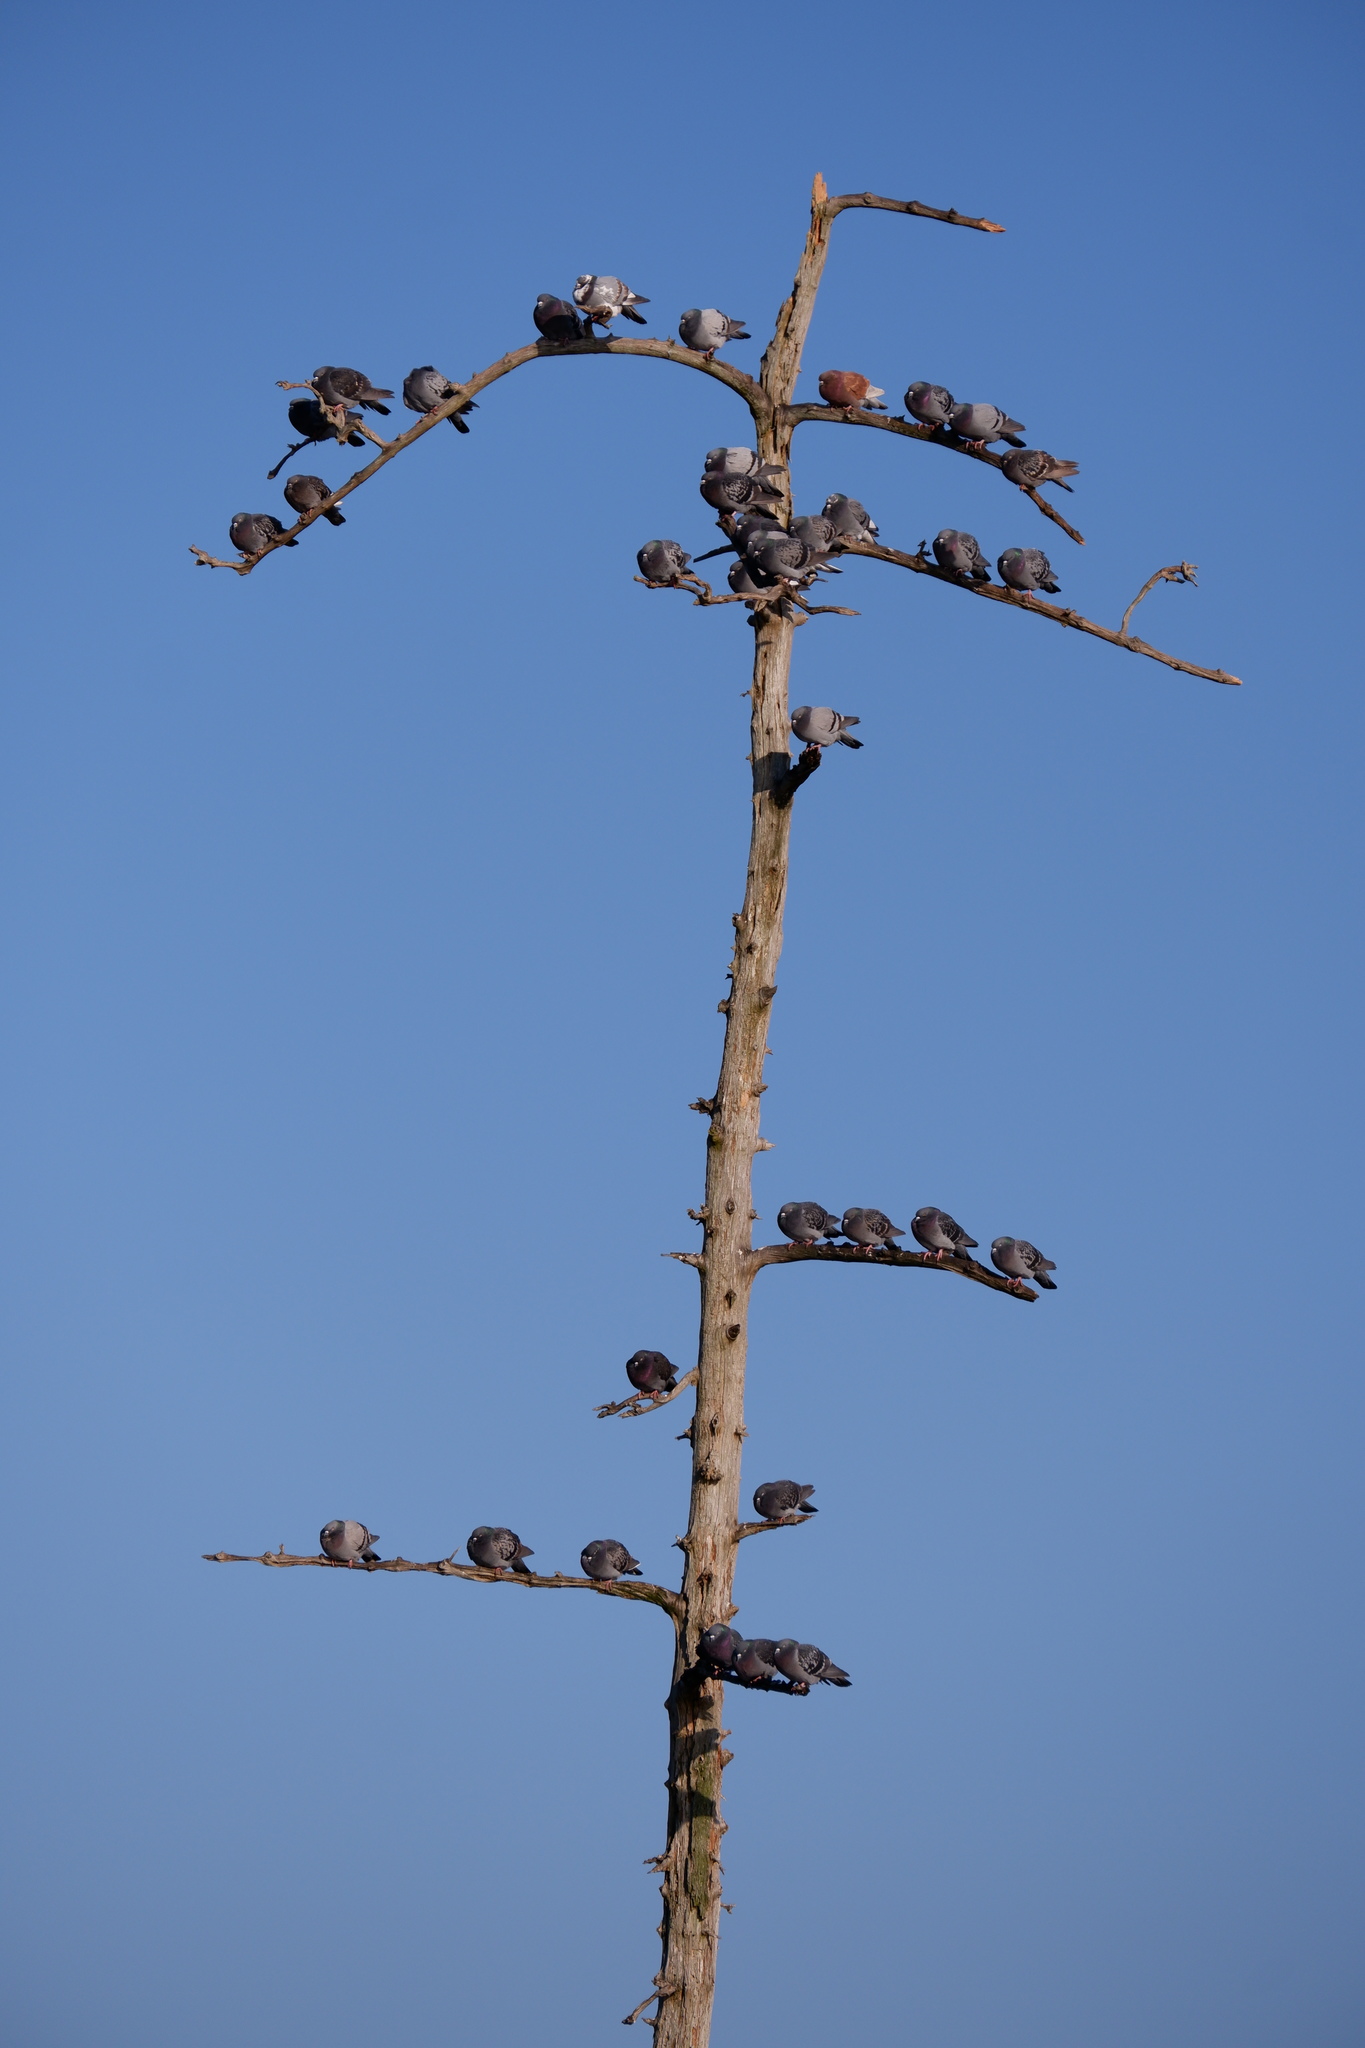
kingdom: Animalia
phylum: Chordata
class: Aves
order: Columbiformes
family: Columbidae
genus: Columba
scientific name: Columba livia
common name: Rock pigeon
